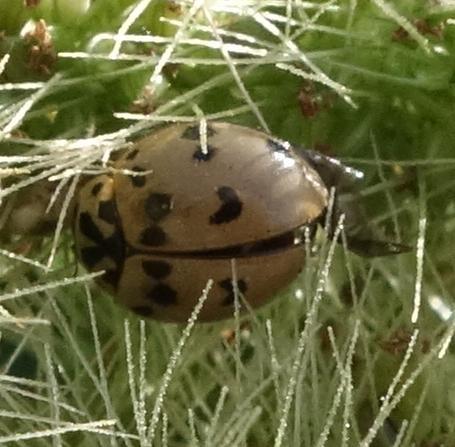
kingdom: Animalia
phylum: Arthropoda
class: Insecta
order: Coleoptera
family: Coccinellidae
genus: Olla
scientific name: Olla v-nigrum
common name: Ashy gray lady beetle
